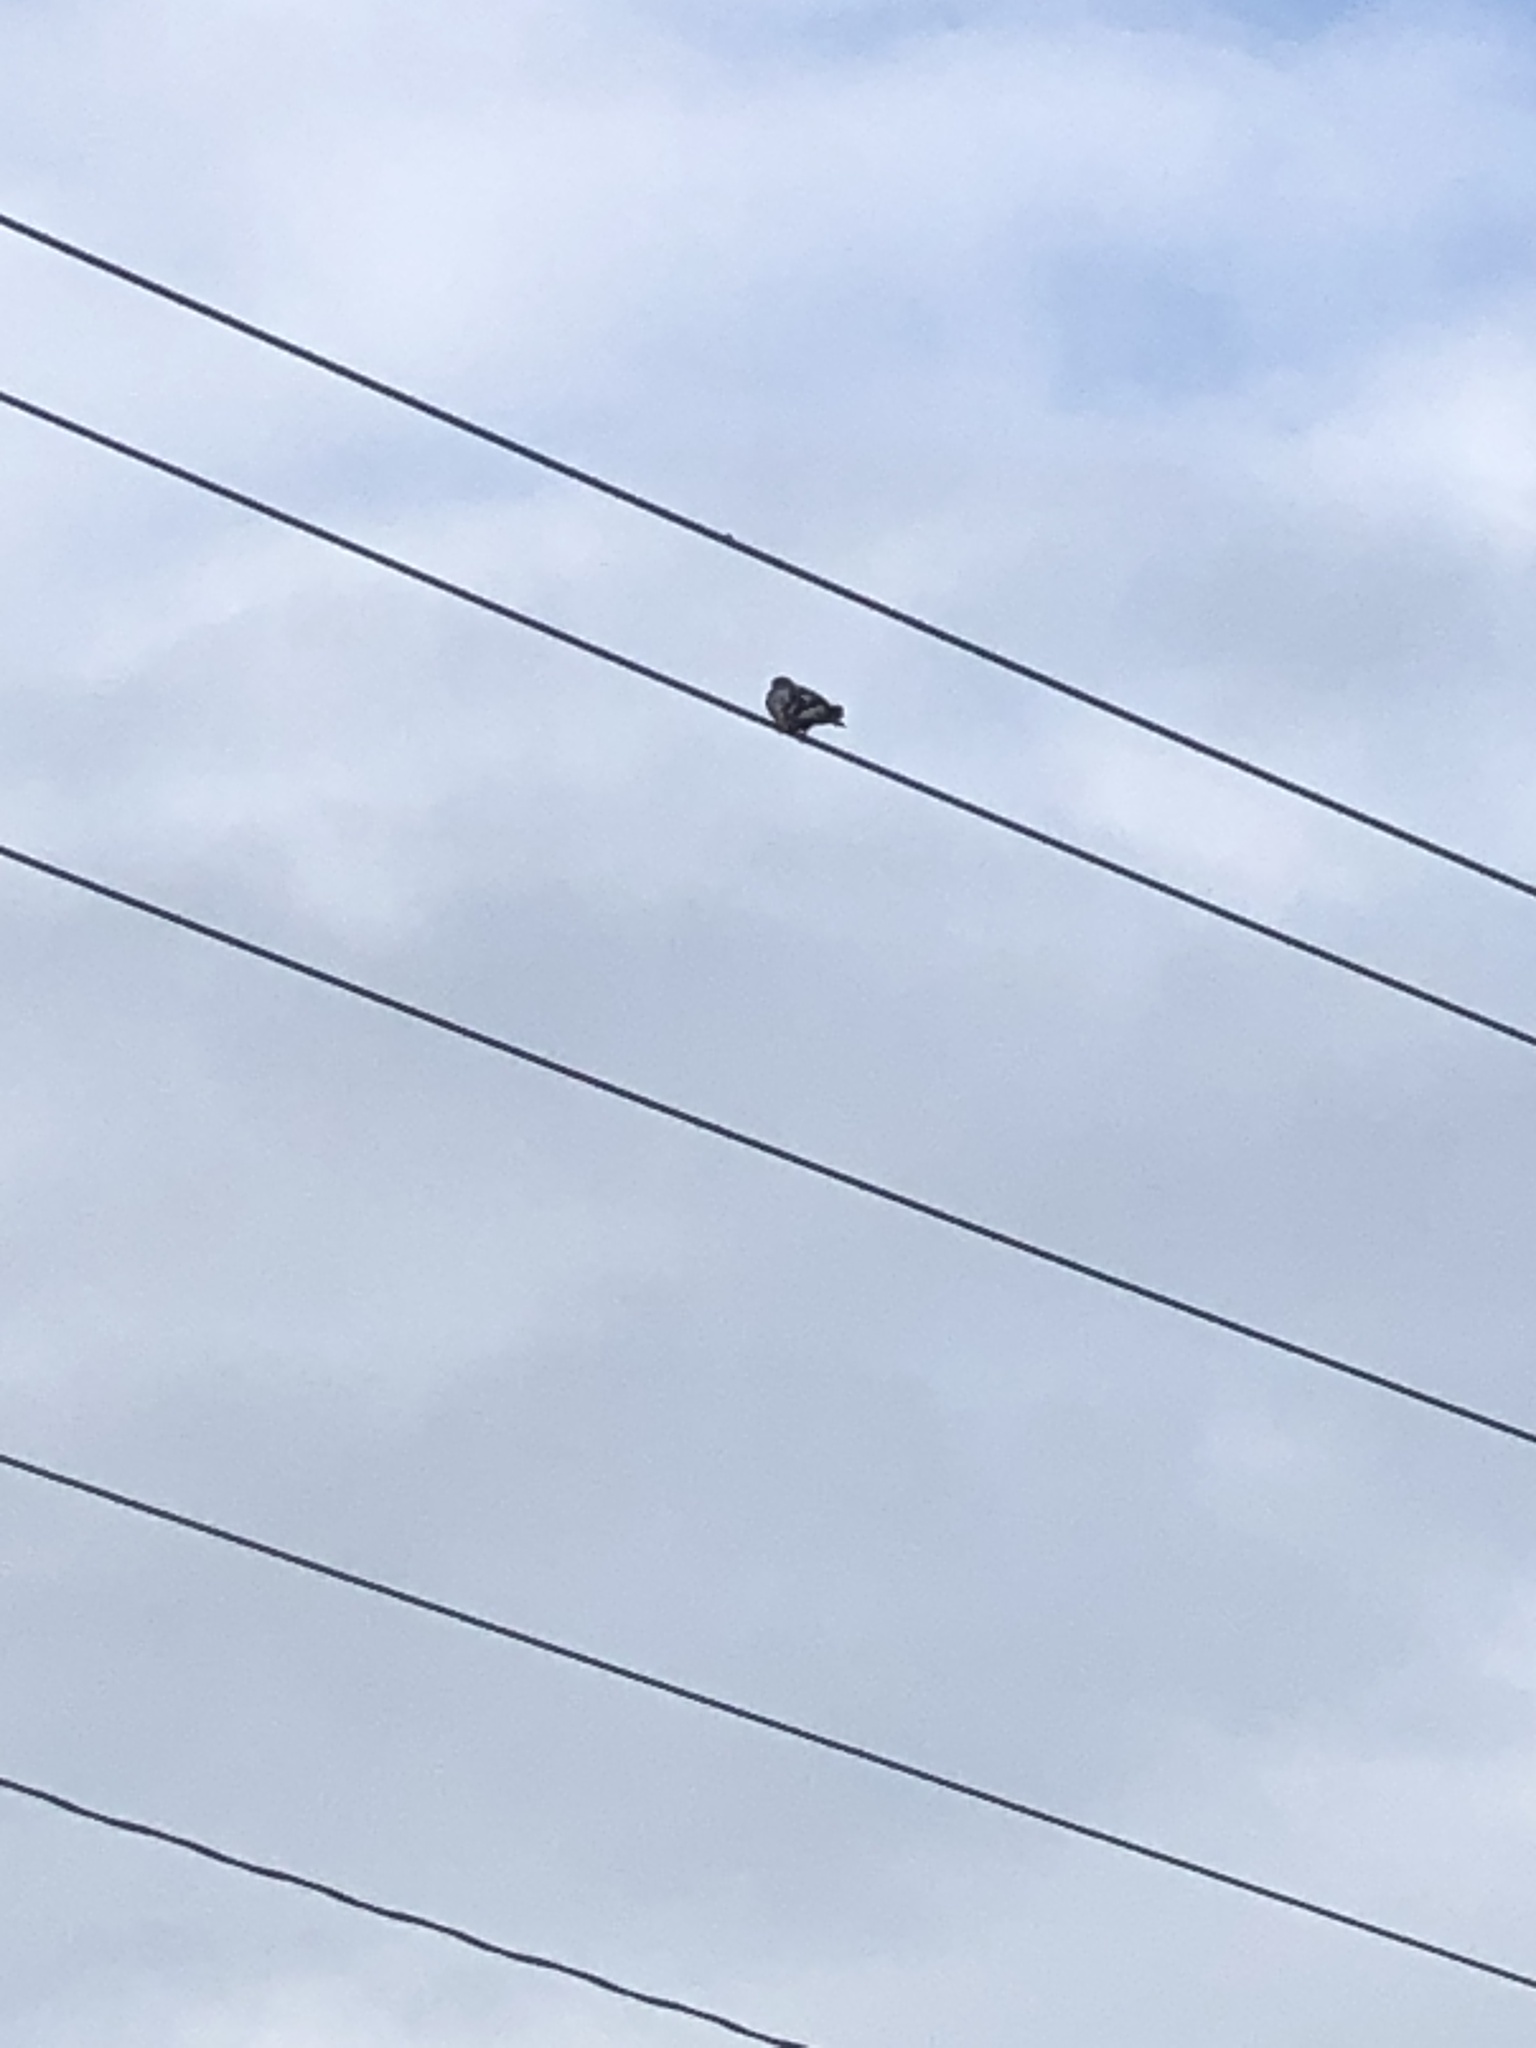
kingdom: Animalia
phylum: Chordata
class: Aves
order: Columbiformes
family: Columbidae
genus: Columba
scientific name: Columba livia
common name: Rock pigeon
